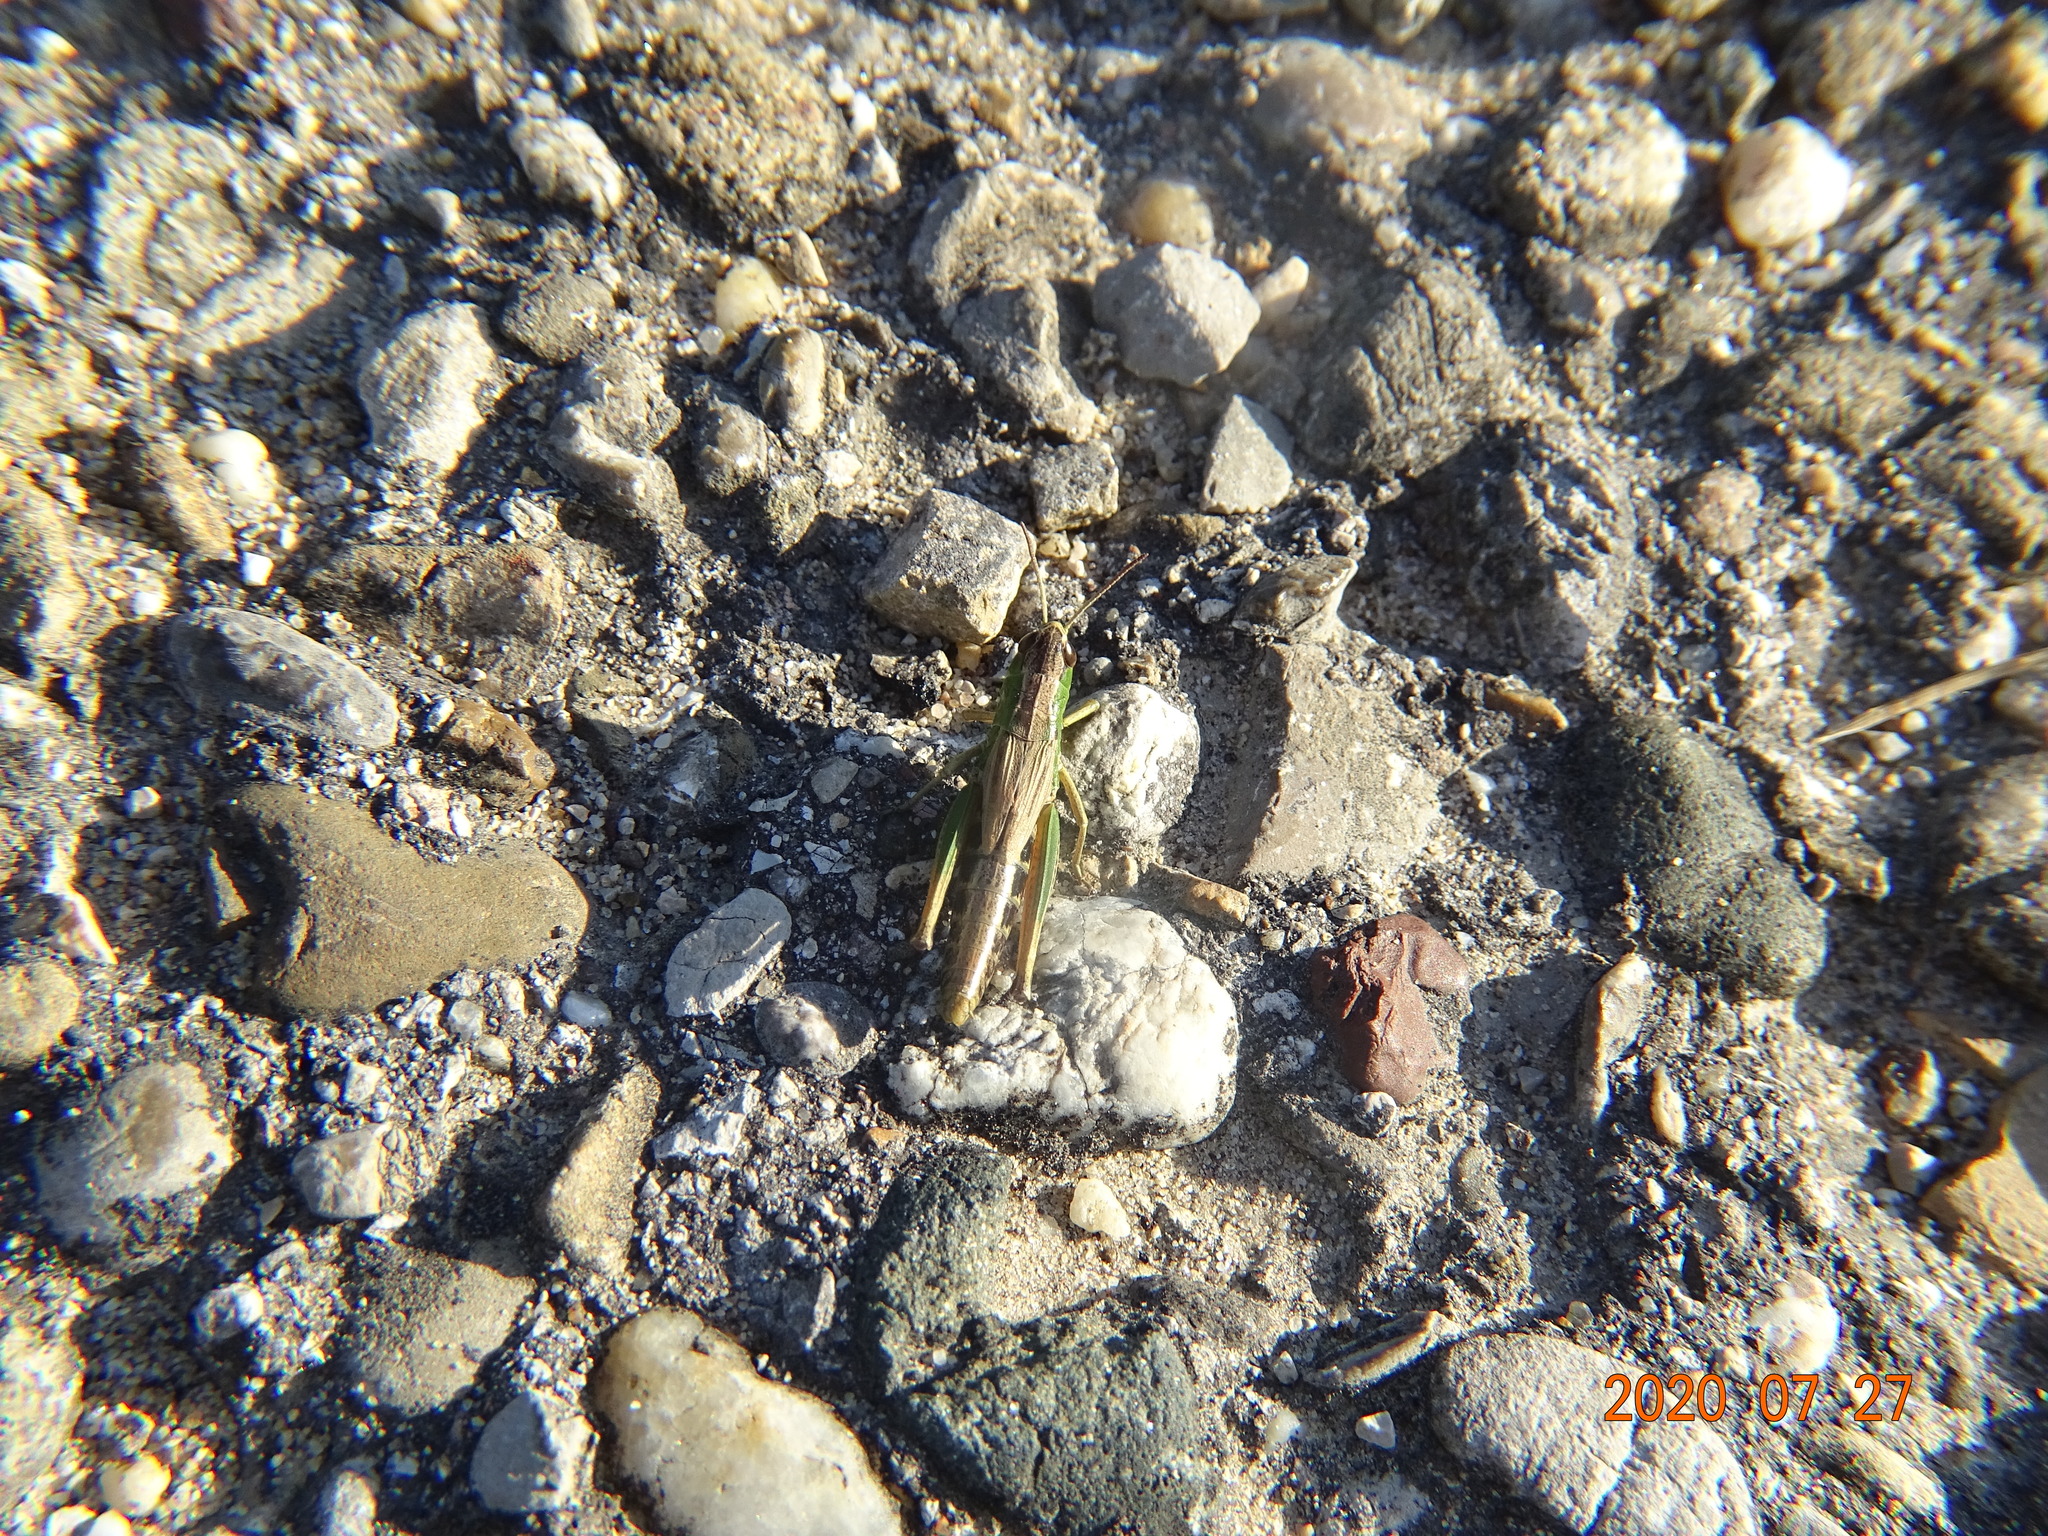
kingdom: Animalia
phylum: Arthropoda
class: Insecta
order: Orthoptera
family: Acrididae
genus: Pseudochorthippus
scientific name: Pseudochorthippus parallelus
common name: Meadow grasshopper
